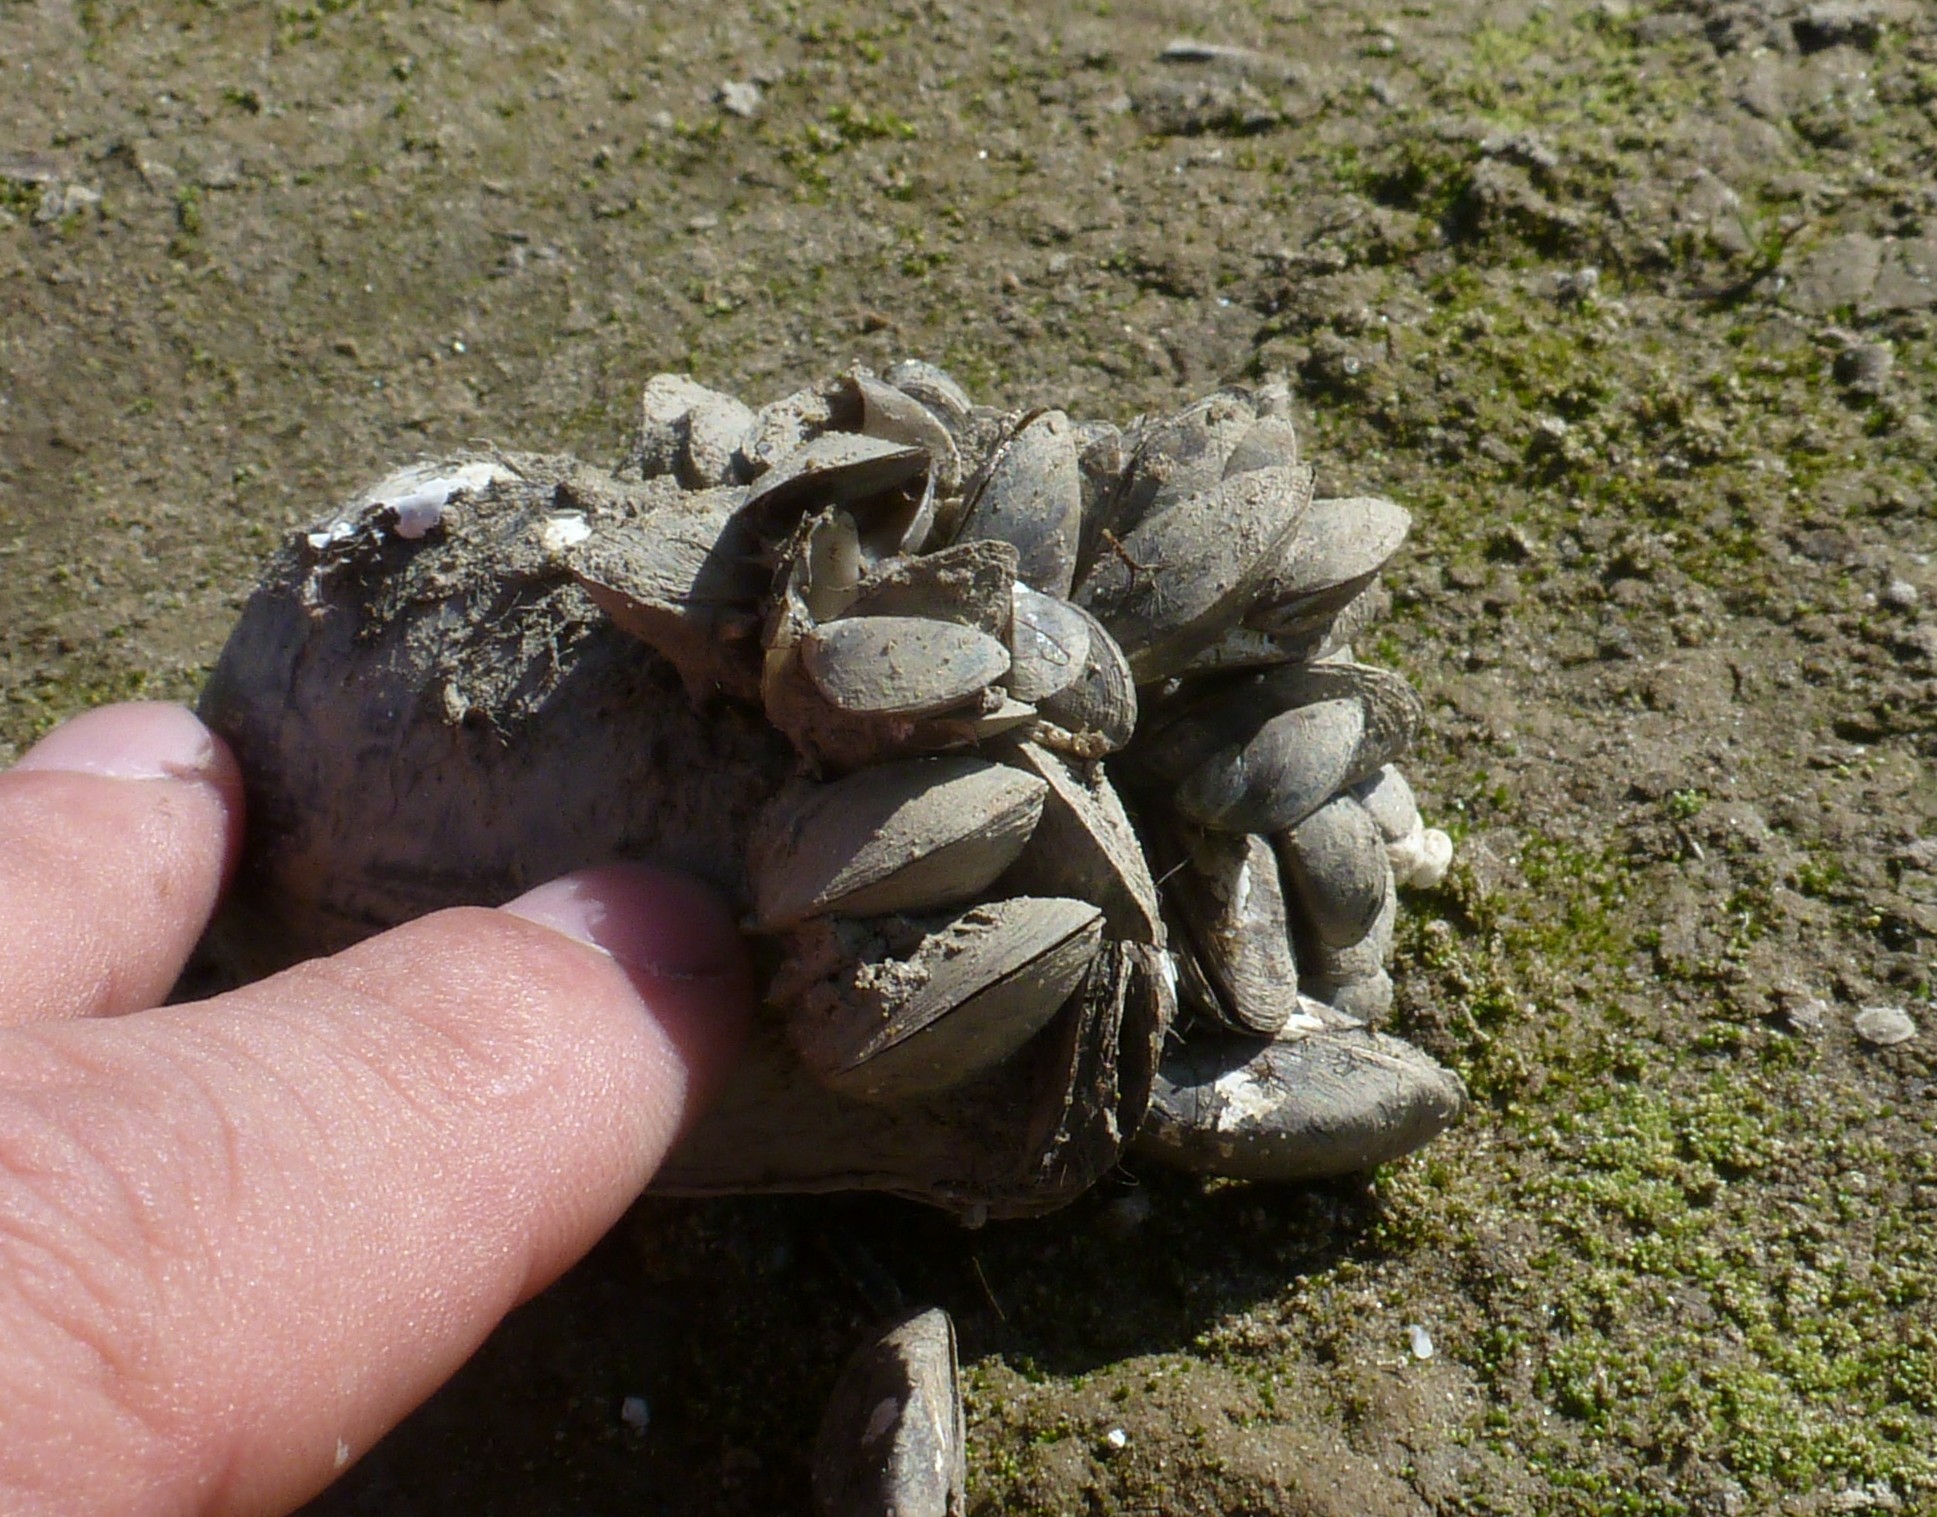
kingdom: Animalia
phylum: Mollusca
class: Bivalvia
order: Myida
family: Dreissenidae
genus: Dreissena
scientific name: Dreissena polymorpha
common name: Zebra mussel
